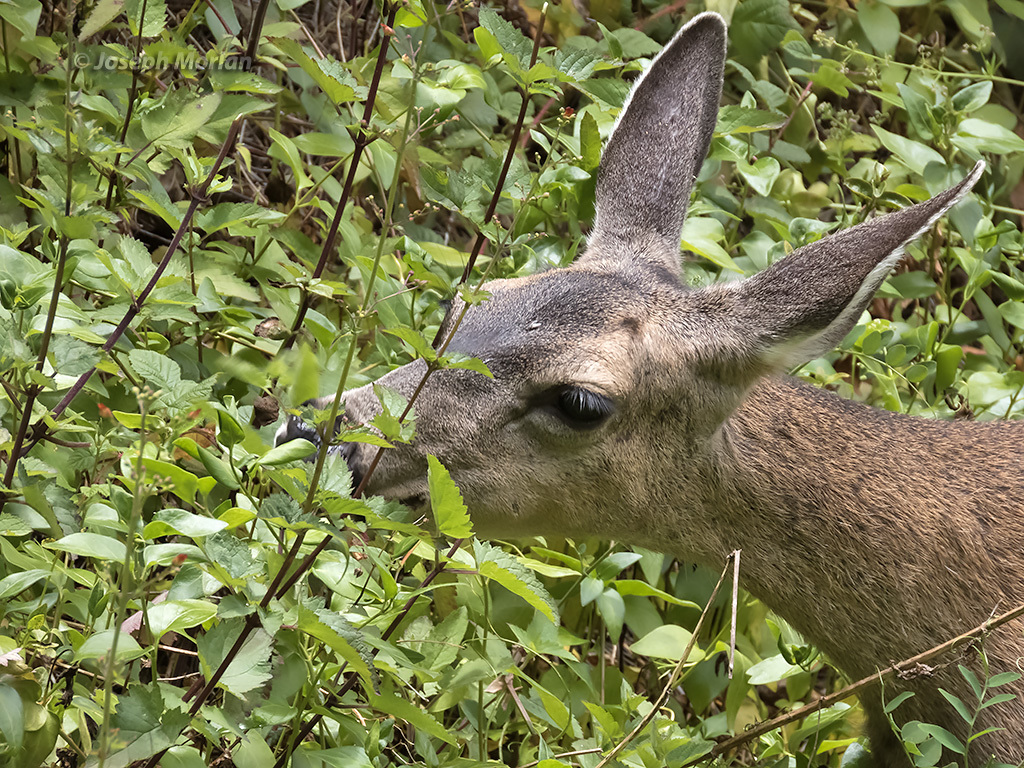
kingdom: Animalia
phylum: Chordata
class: Mammalia
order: Artiodactyla
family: Cervidae
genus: Odocoileus
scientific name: Odocoileus hemionus
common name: Mule deer
